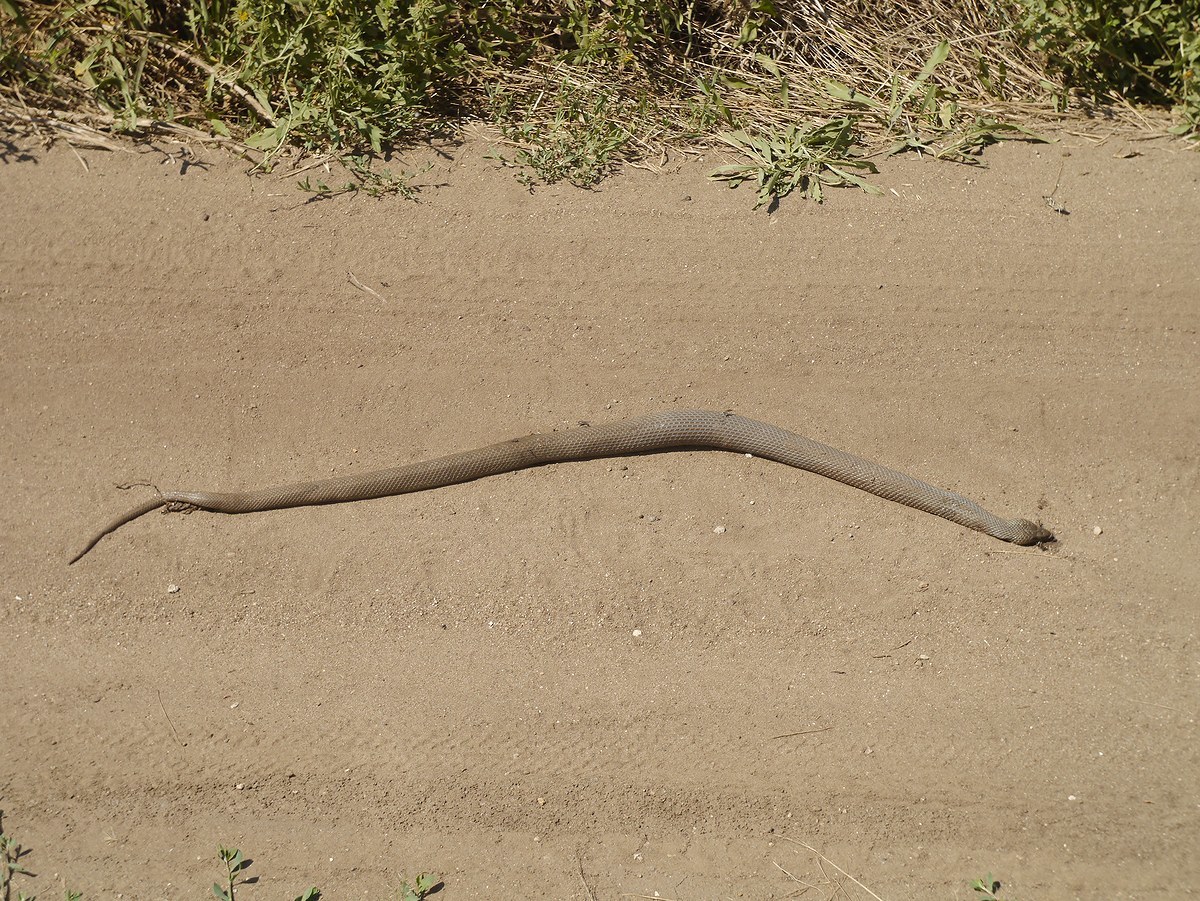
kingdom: Animalia
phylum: Chordata
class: Squamata
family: Colubridae
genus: Natrix
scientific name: Natrix tessellata
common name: Dice snake
